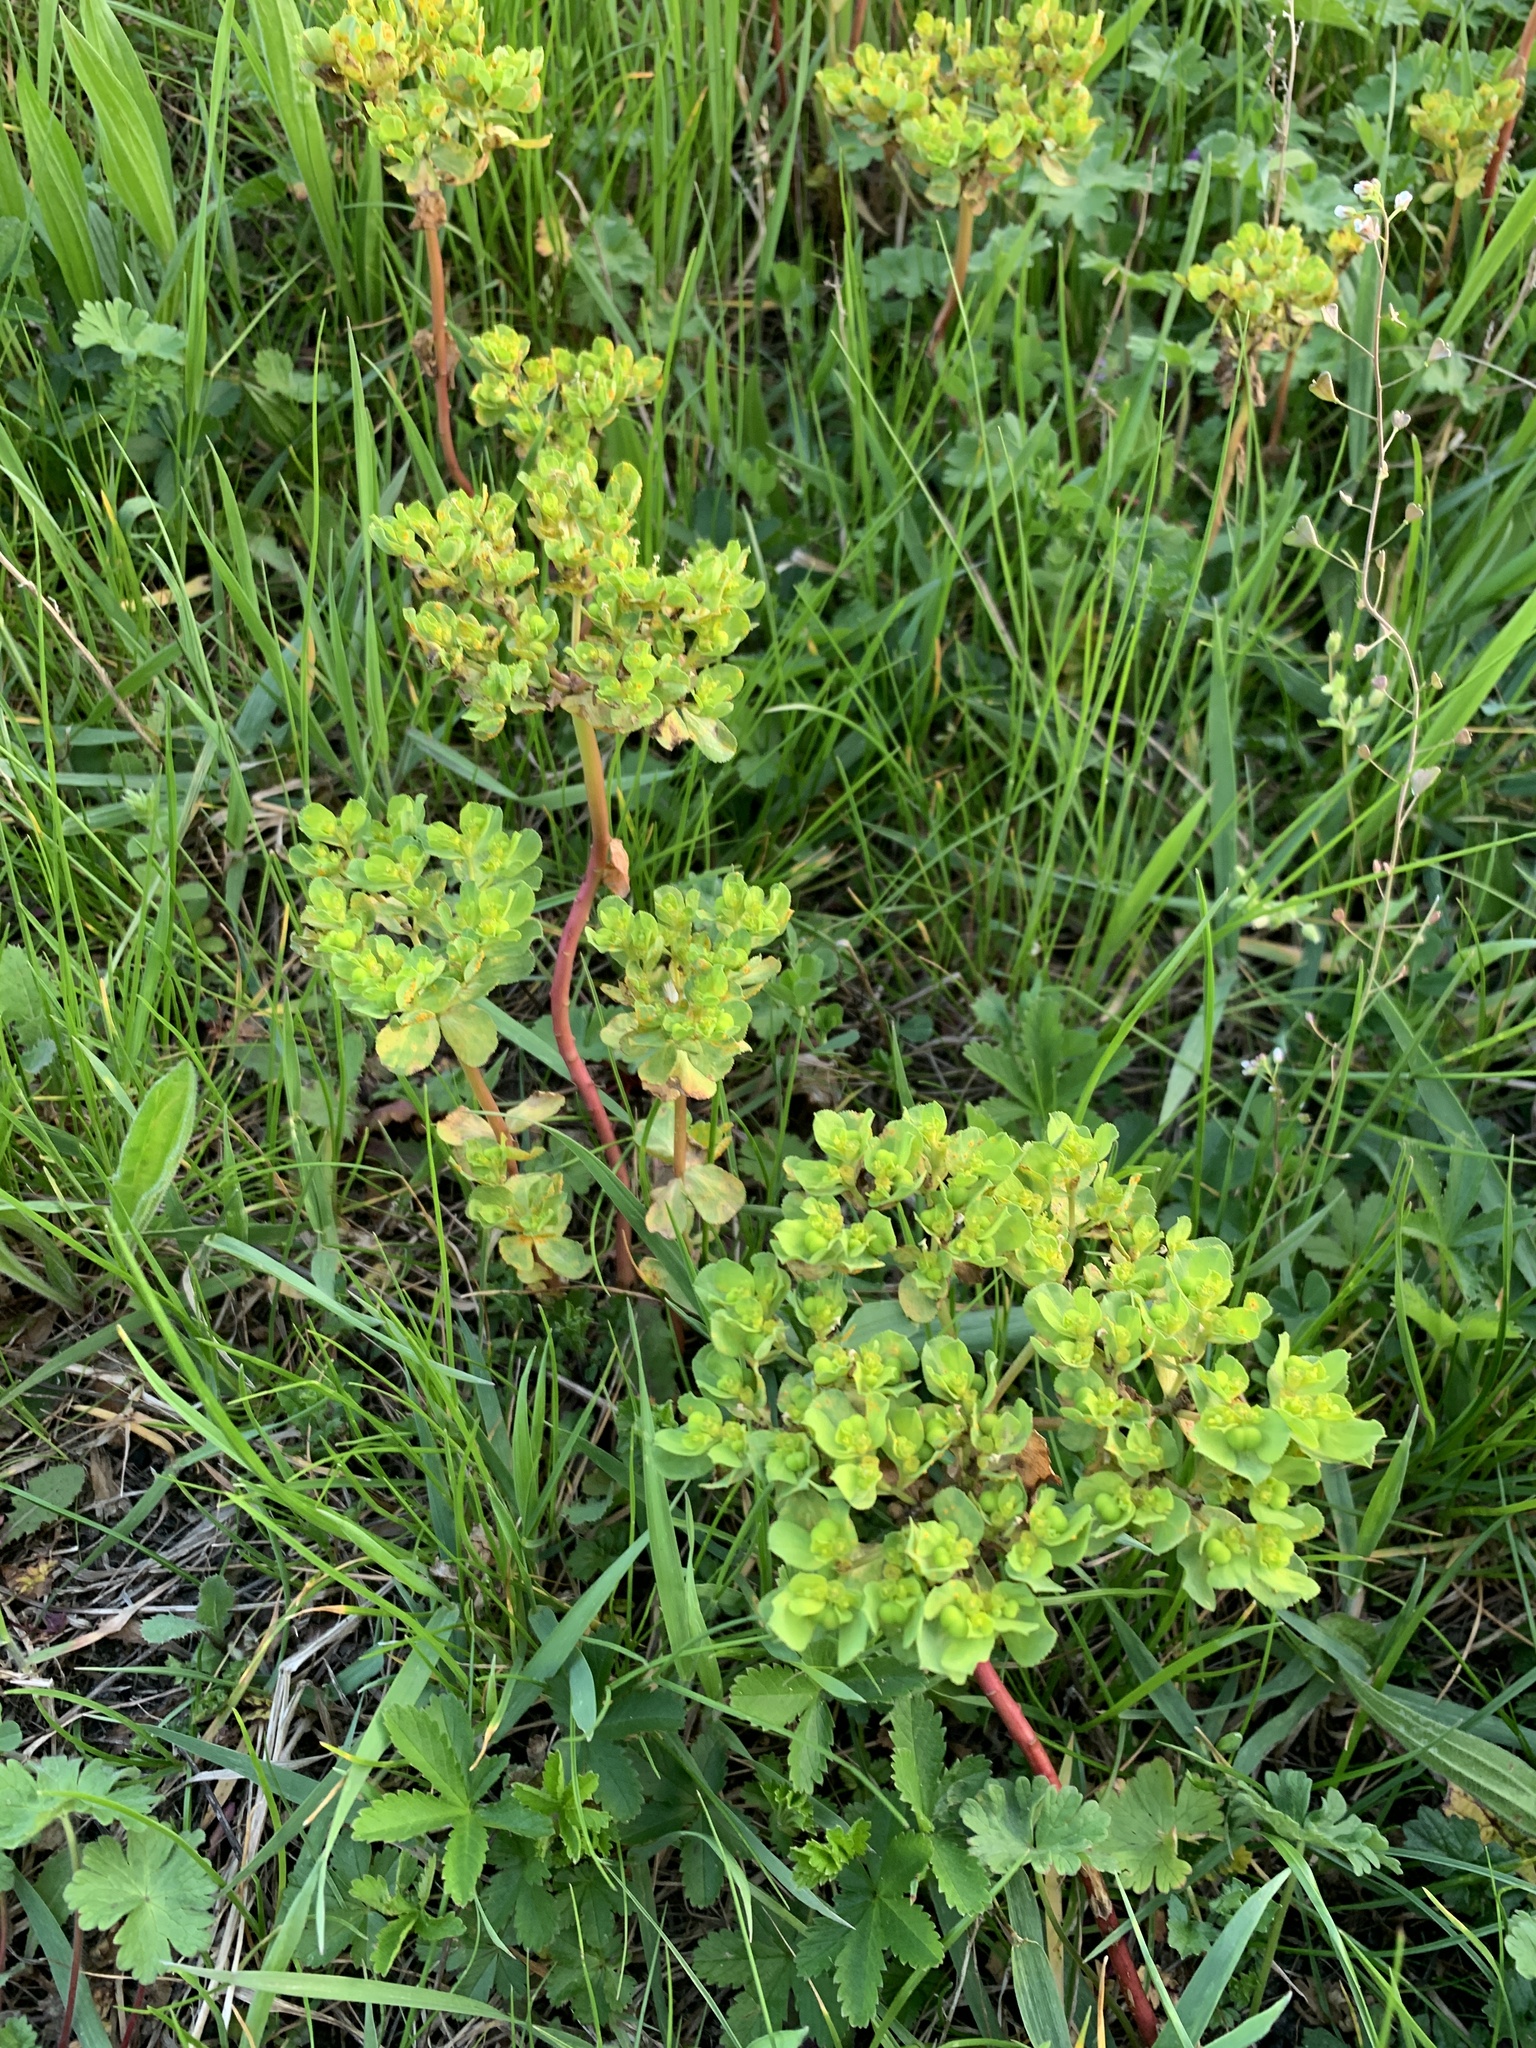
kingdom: Plantae
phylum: Tracheophyta
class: Magnoliopsida
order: Malpighiales
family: Euphorbiaceae
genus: Euphorbia
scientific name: Euphorbia helioscopia
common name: Sun spurge
